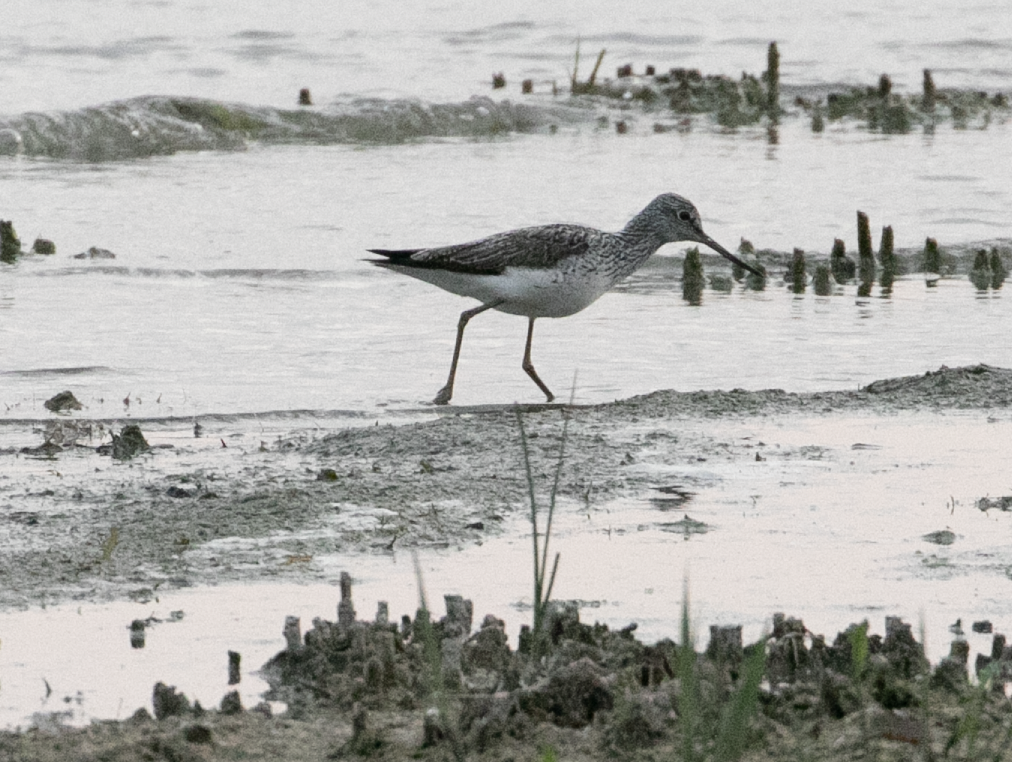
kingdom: Animalia
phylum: Chordata
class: Aves
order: Charadriiformes
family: Scolopacidae
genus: Tringa
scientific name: Tringa nebularia
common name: Common greenshank
